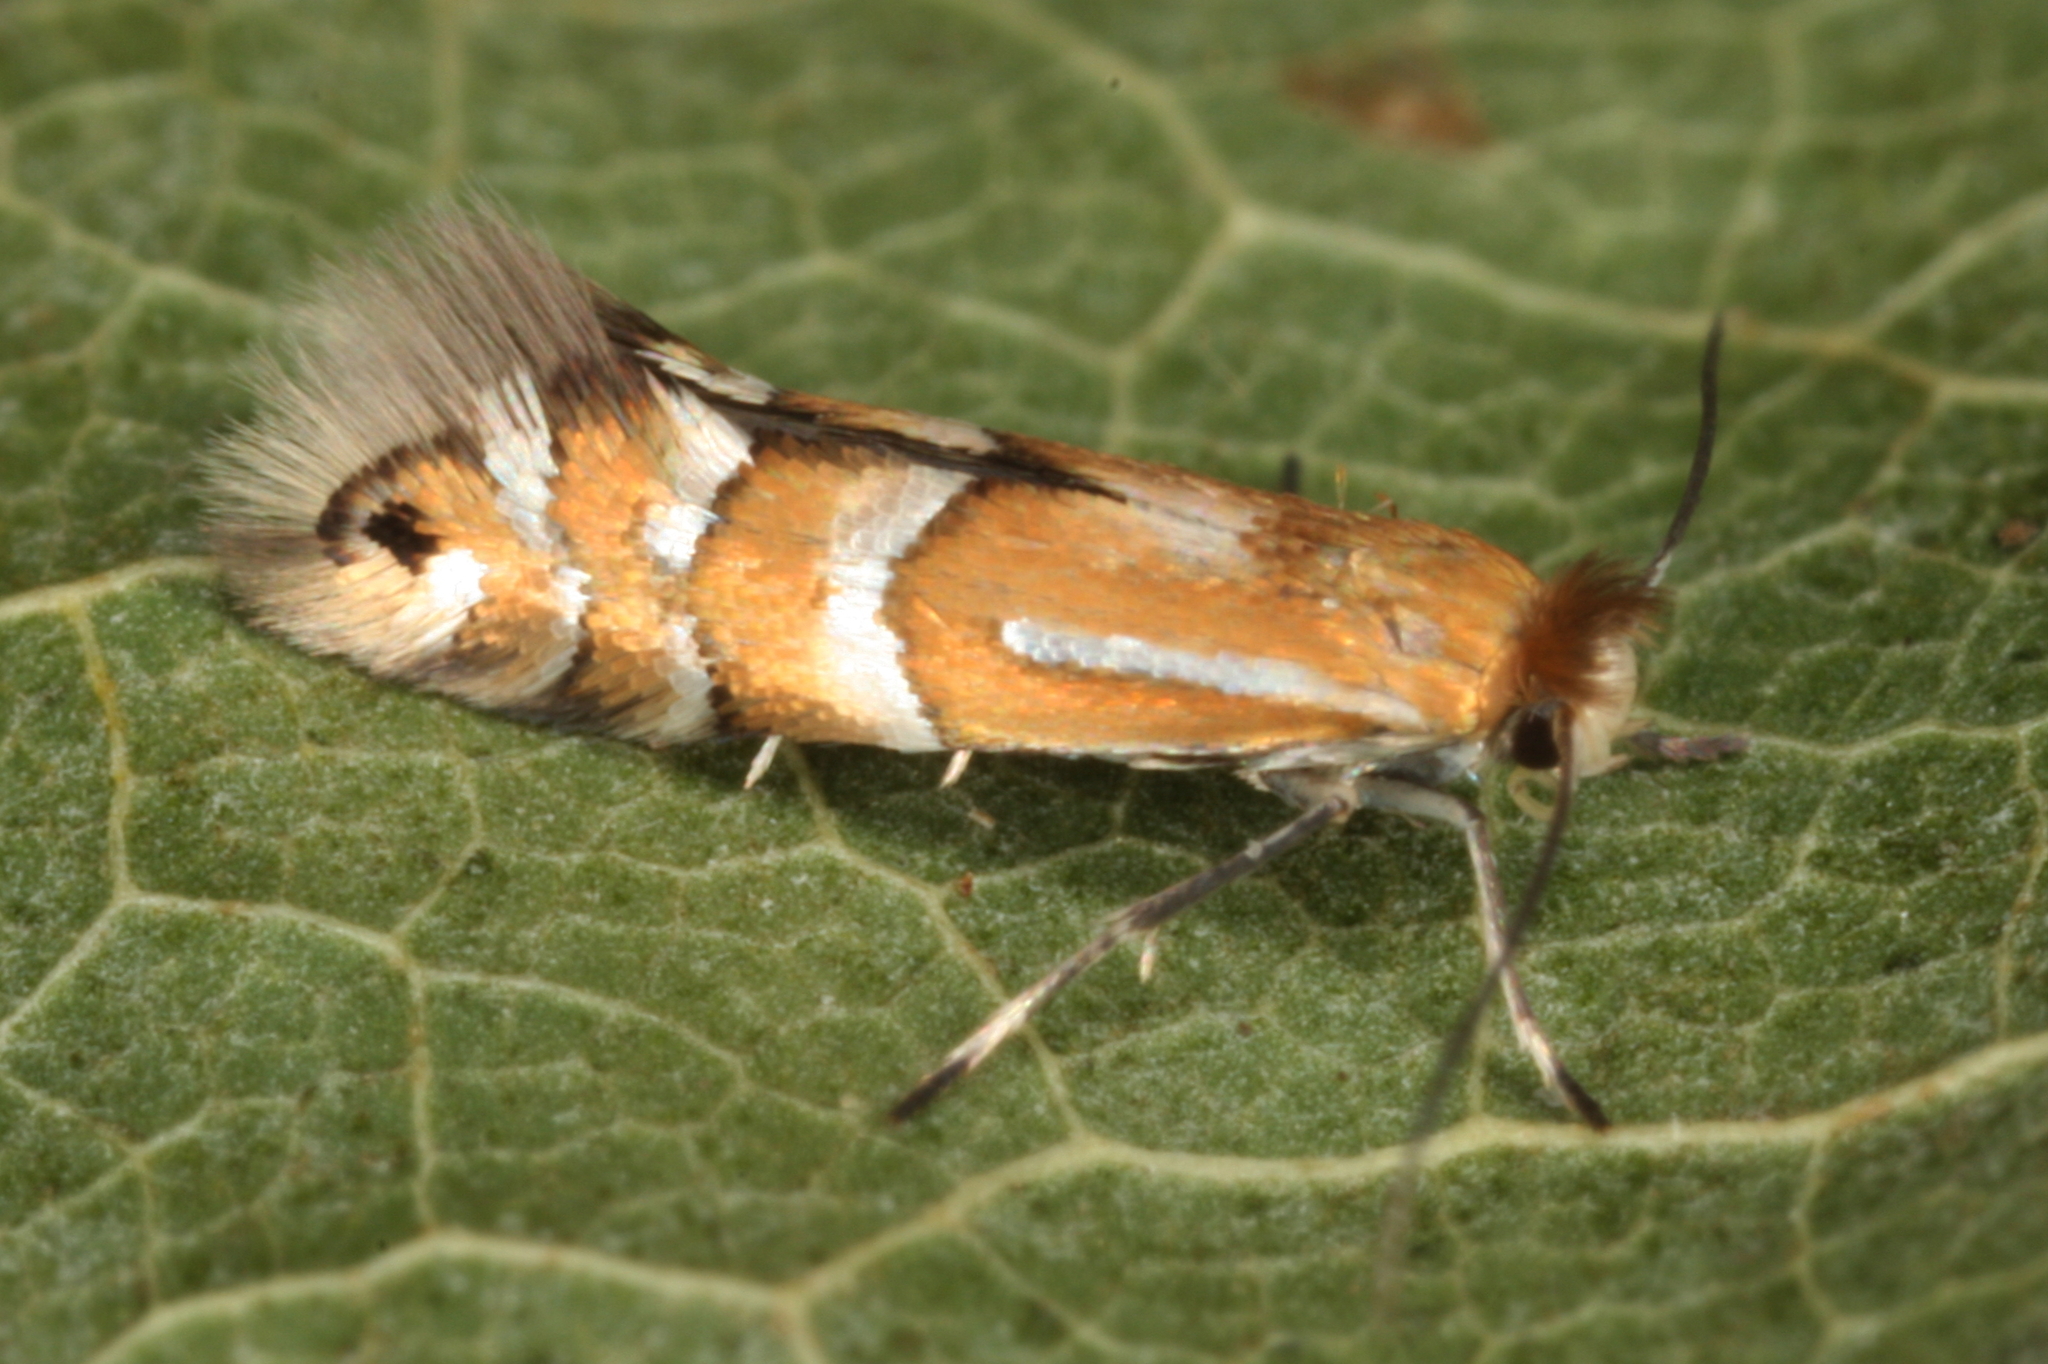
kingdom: Animalia
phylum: Arthropoda
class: Insecta
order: Lepidoptera
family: Gracillariidae
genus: Phyllonorycter
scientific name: Phyllonorycter ulmifoliella
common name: Red birch midget
